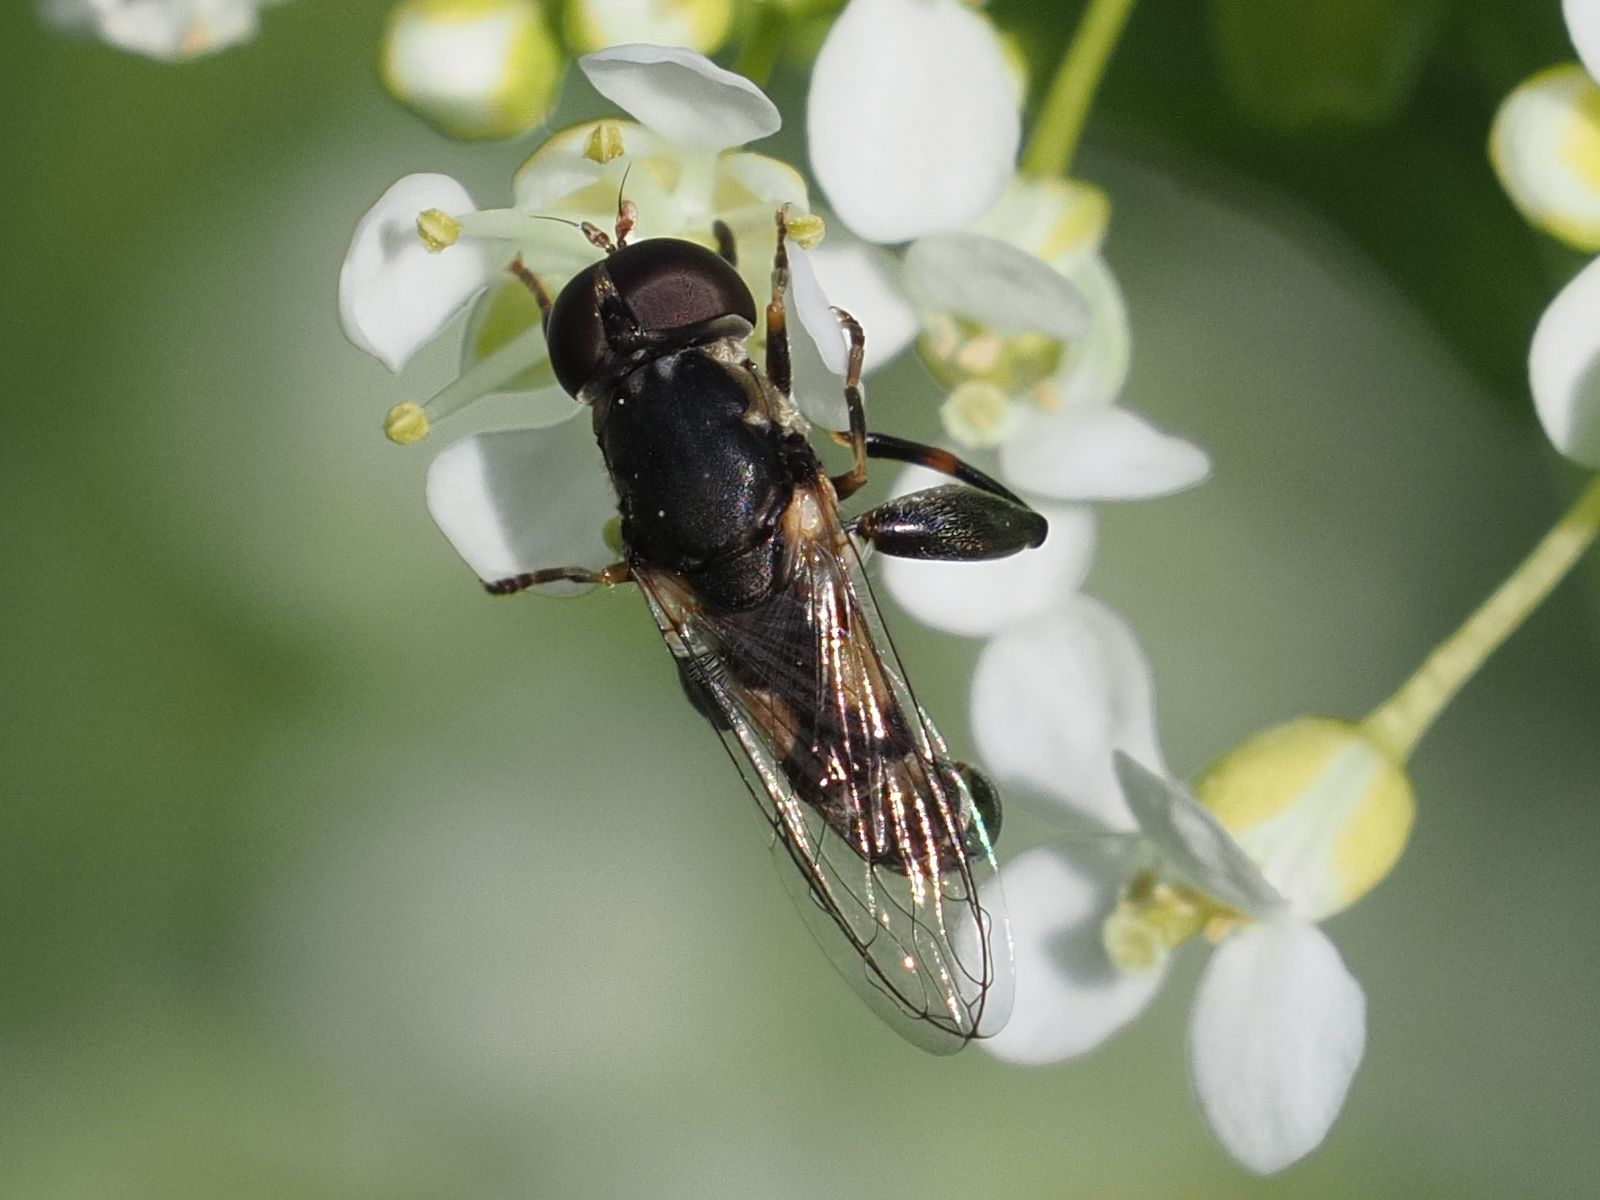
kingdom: Animalia
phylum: Arthropoda
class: Insecta
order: Diptera
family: Syrphidae
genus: Syritta
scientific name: Syritta pipiens
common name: Hover fly
